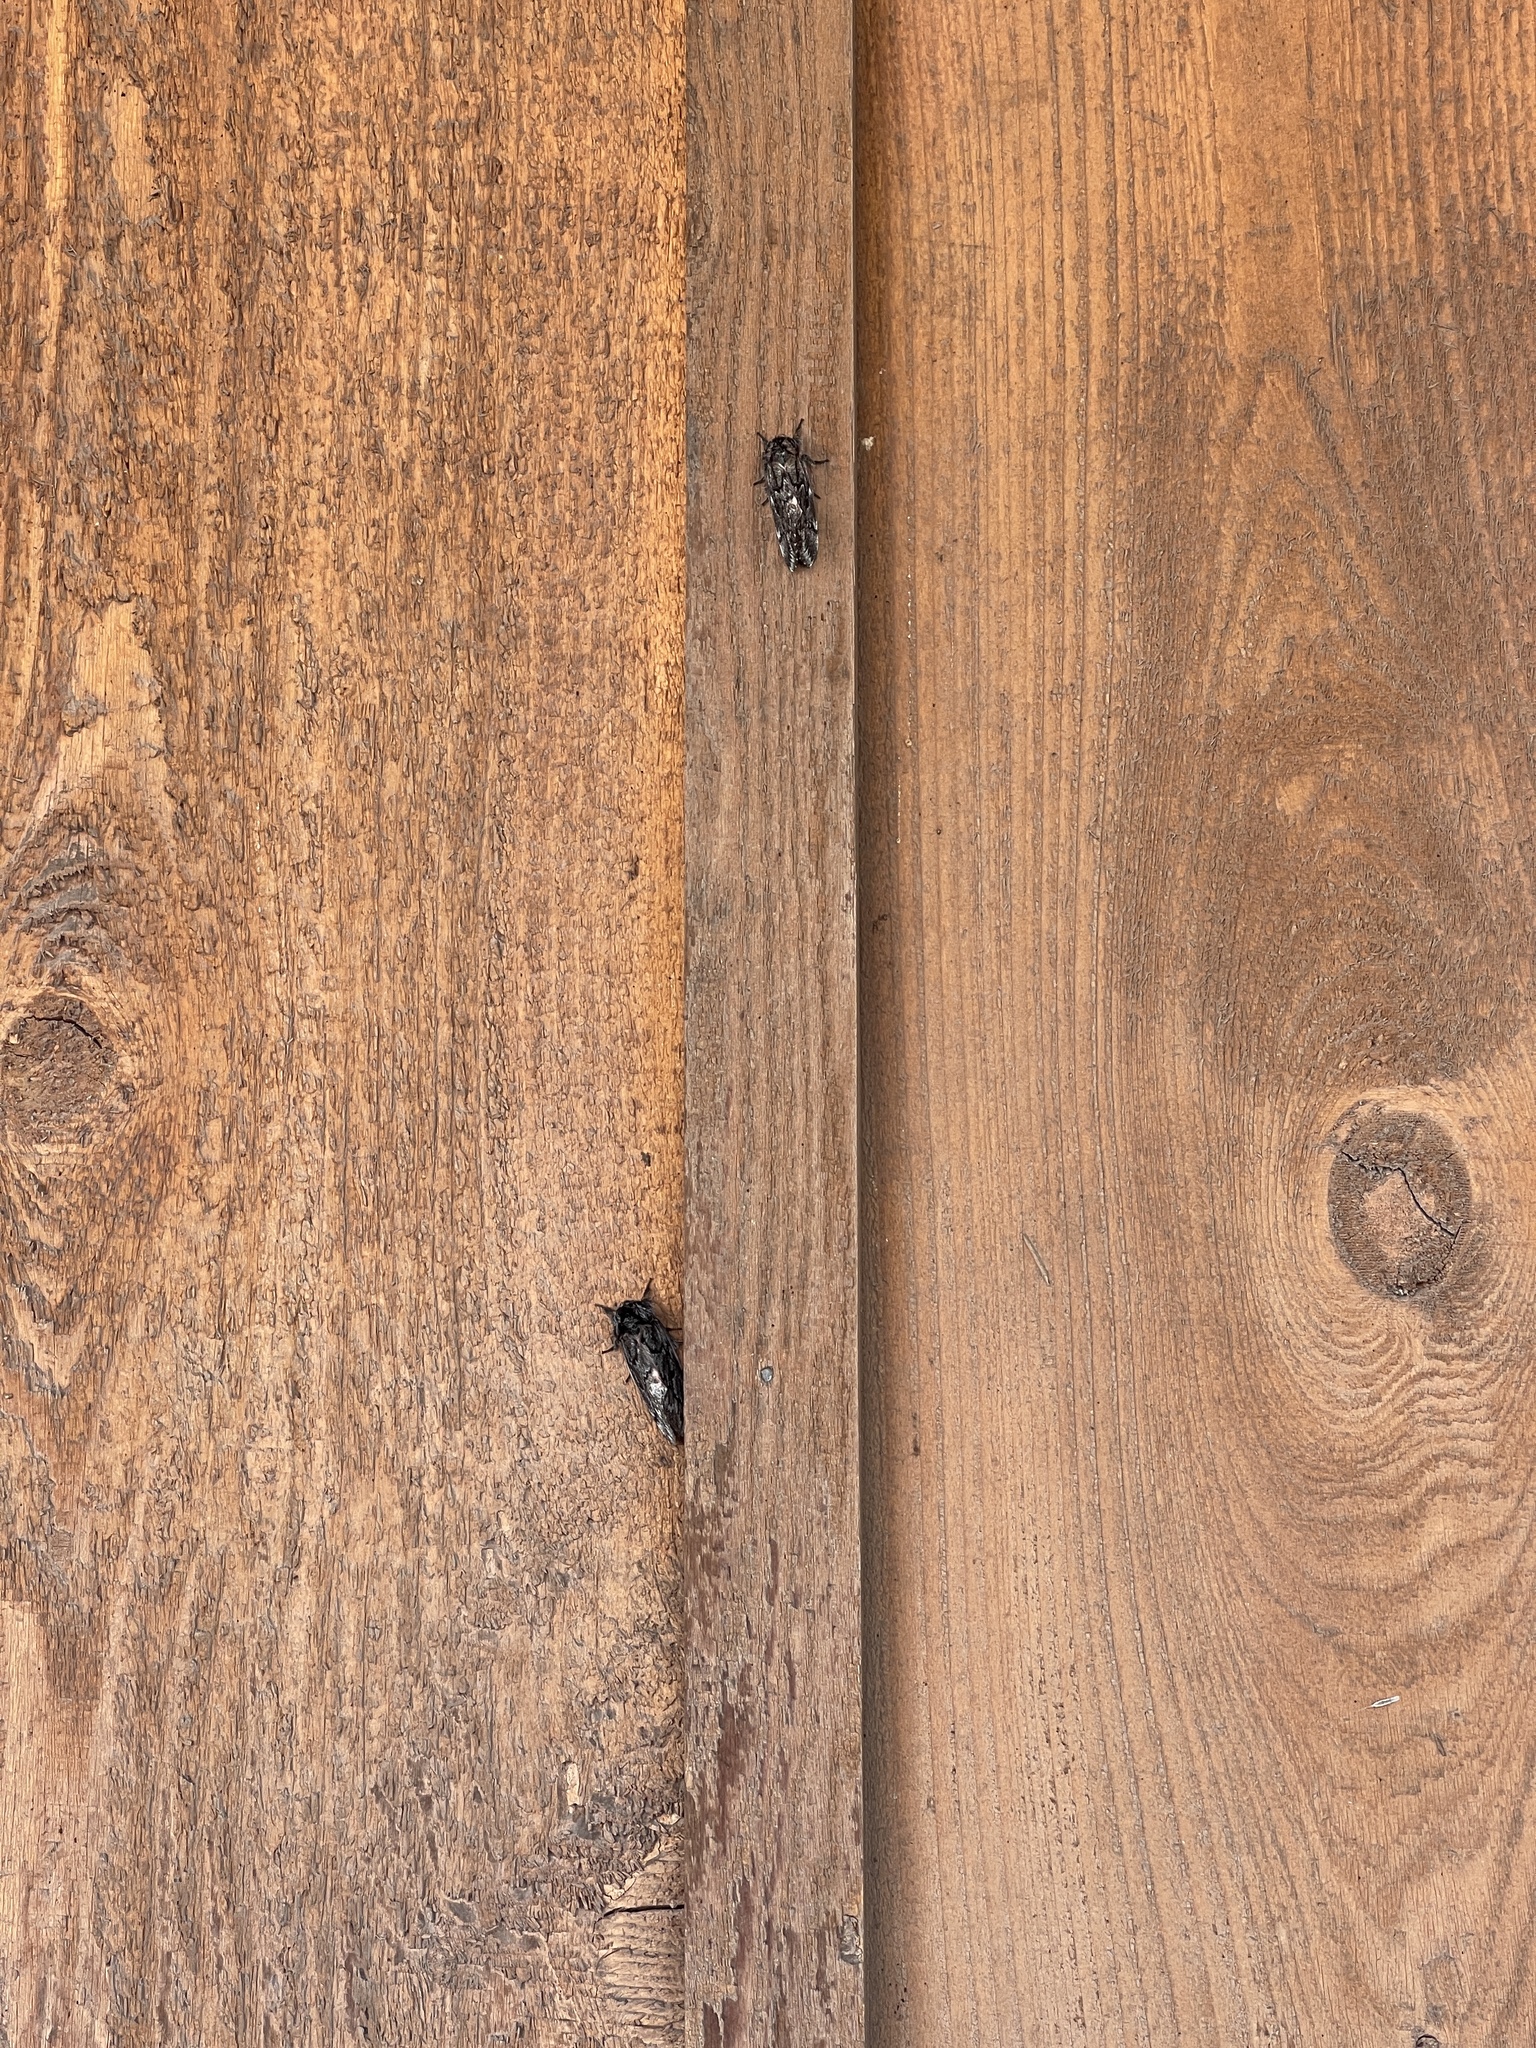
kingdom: Animalia
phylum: Arthropoda
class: Insecta
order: Lepidoptera
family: Saturniidae
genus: Coloradia
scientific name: Coloradia pandora
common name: Pandora pinemoth
